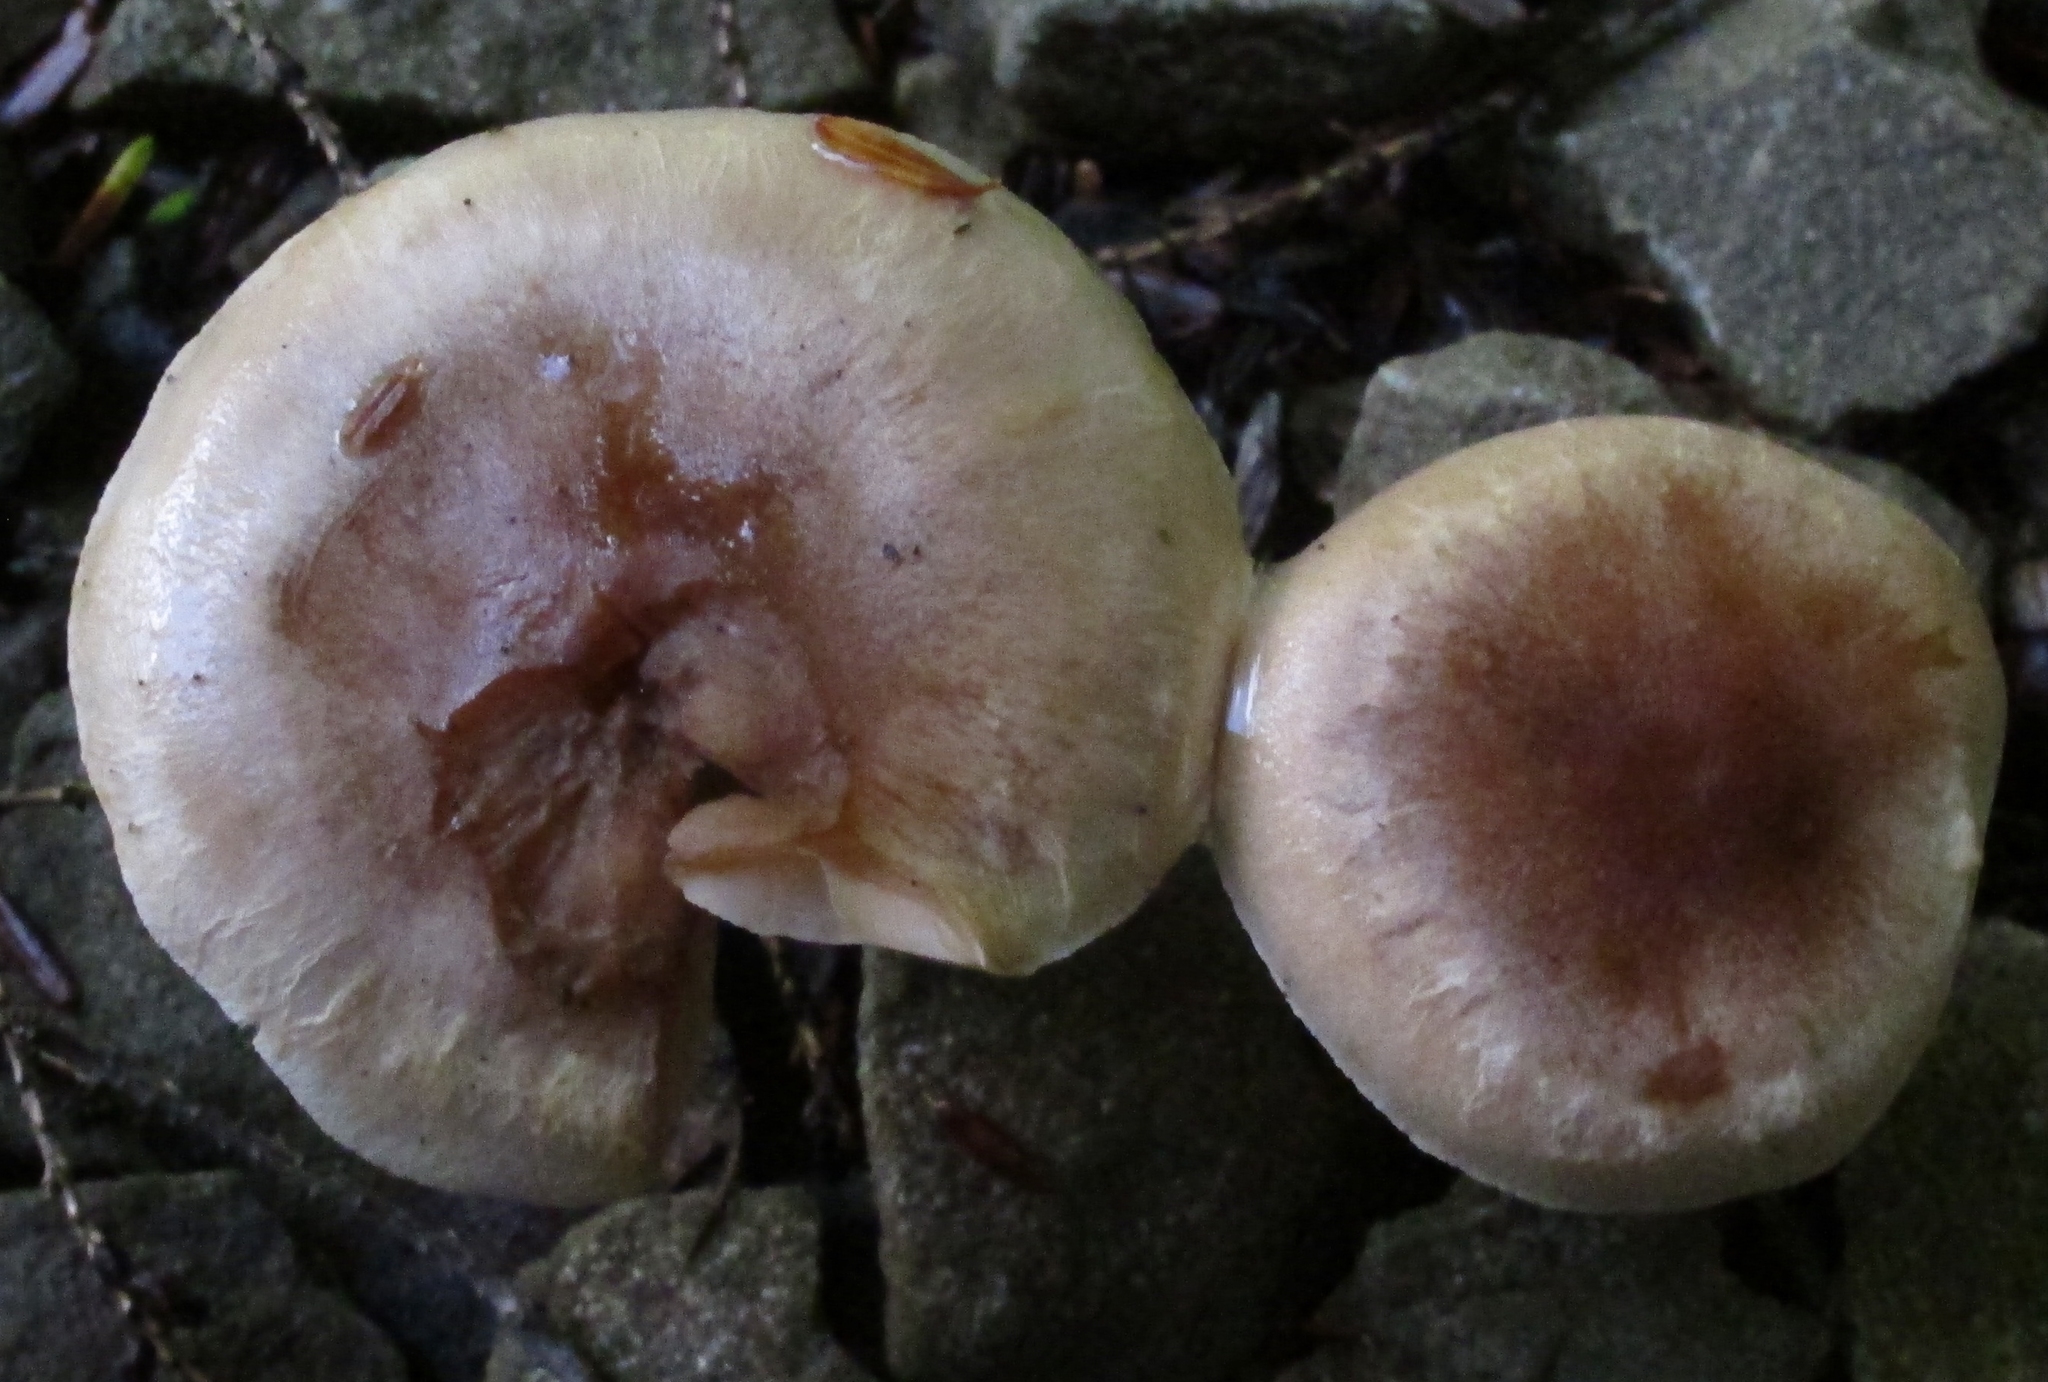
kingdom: Fungi
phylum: Basidiomycota
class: Agaricomycetes
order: Agaricales
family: Hymenogastraceae
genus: Hebeloma
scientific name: Hebeloma mesophaeum
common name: Veiled poisonpie
